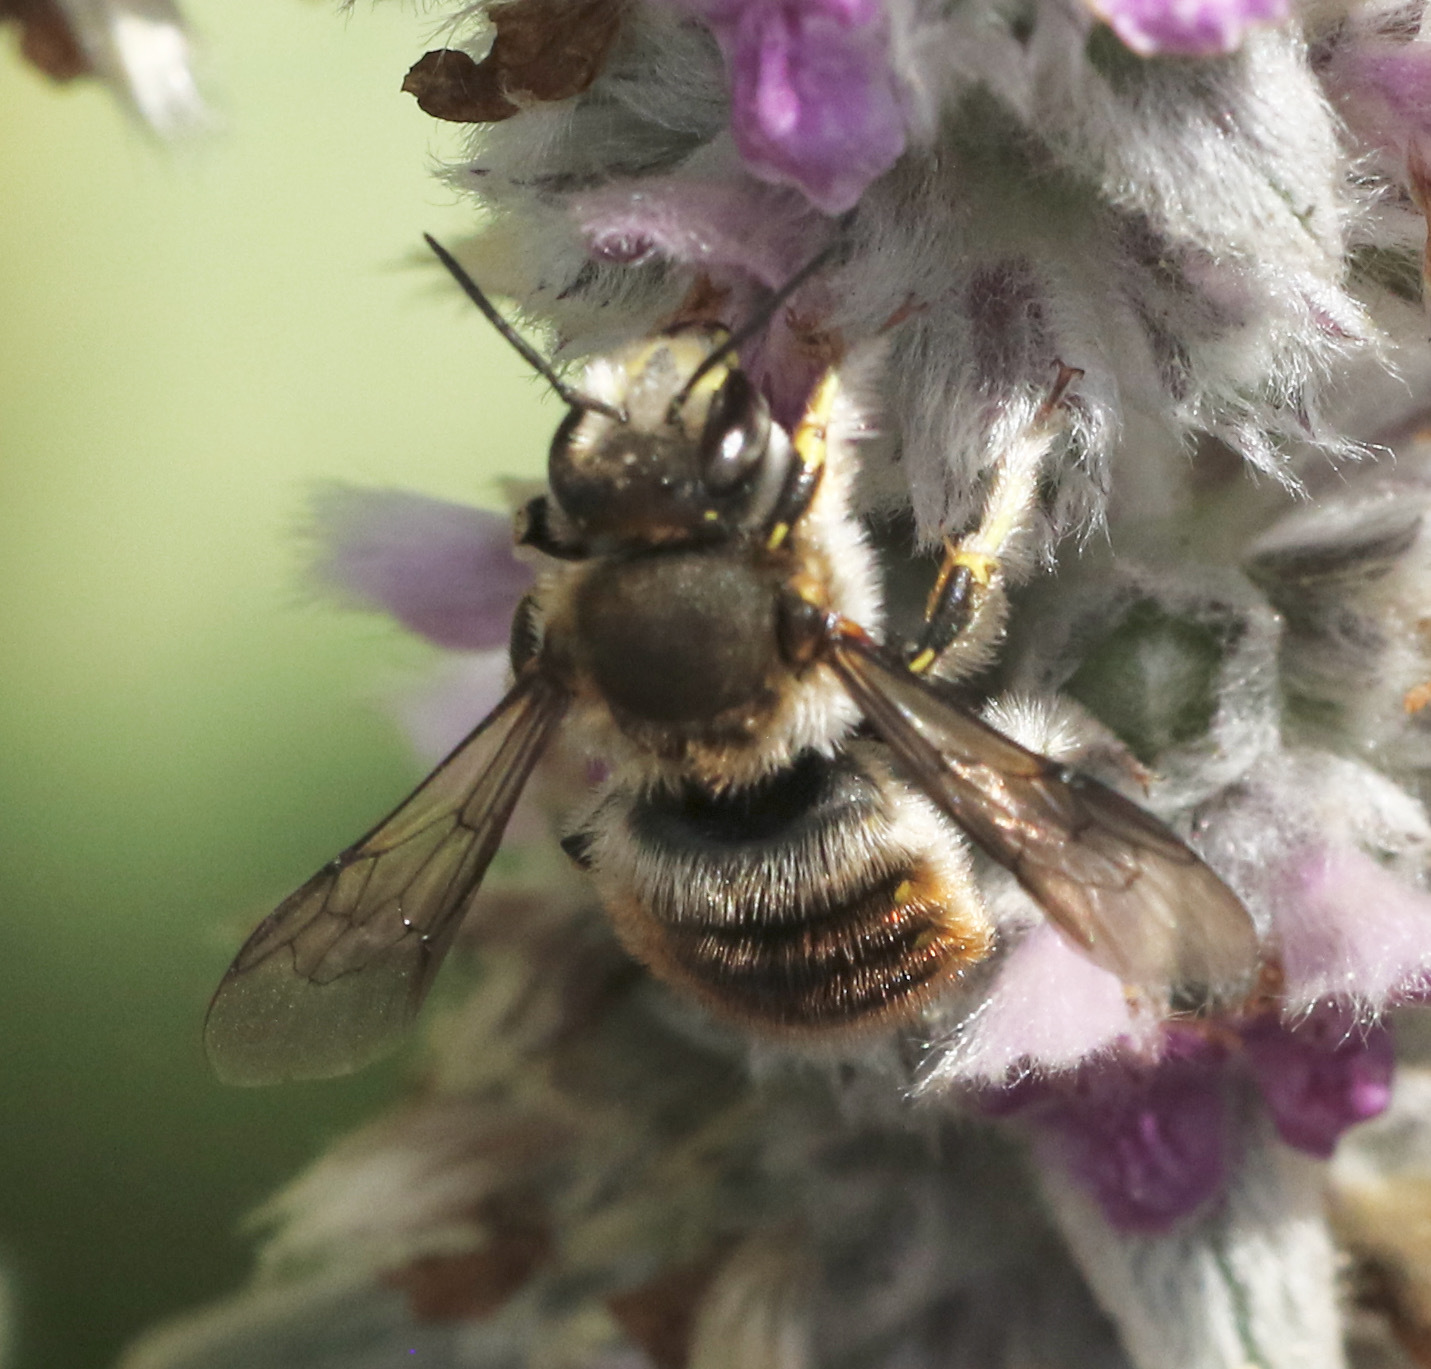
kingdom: Animalia
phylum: Arthropoda
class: Insecta
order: Hymenoptera
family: Megachilidae
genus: Anthidium
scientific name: Anthidium manicatum
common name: Wool carder bee
